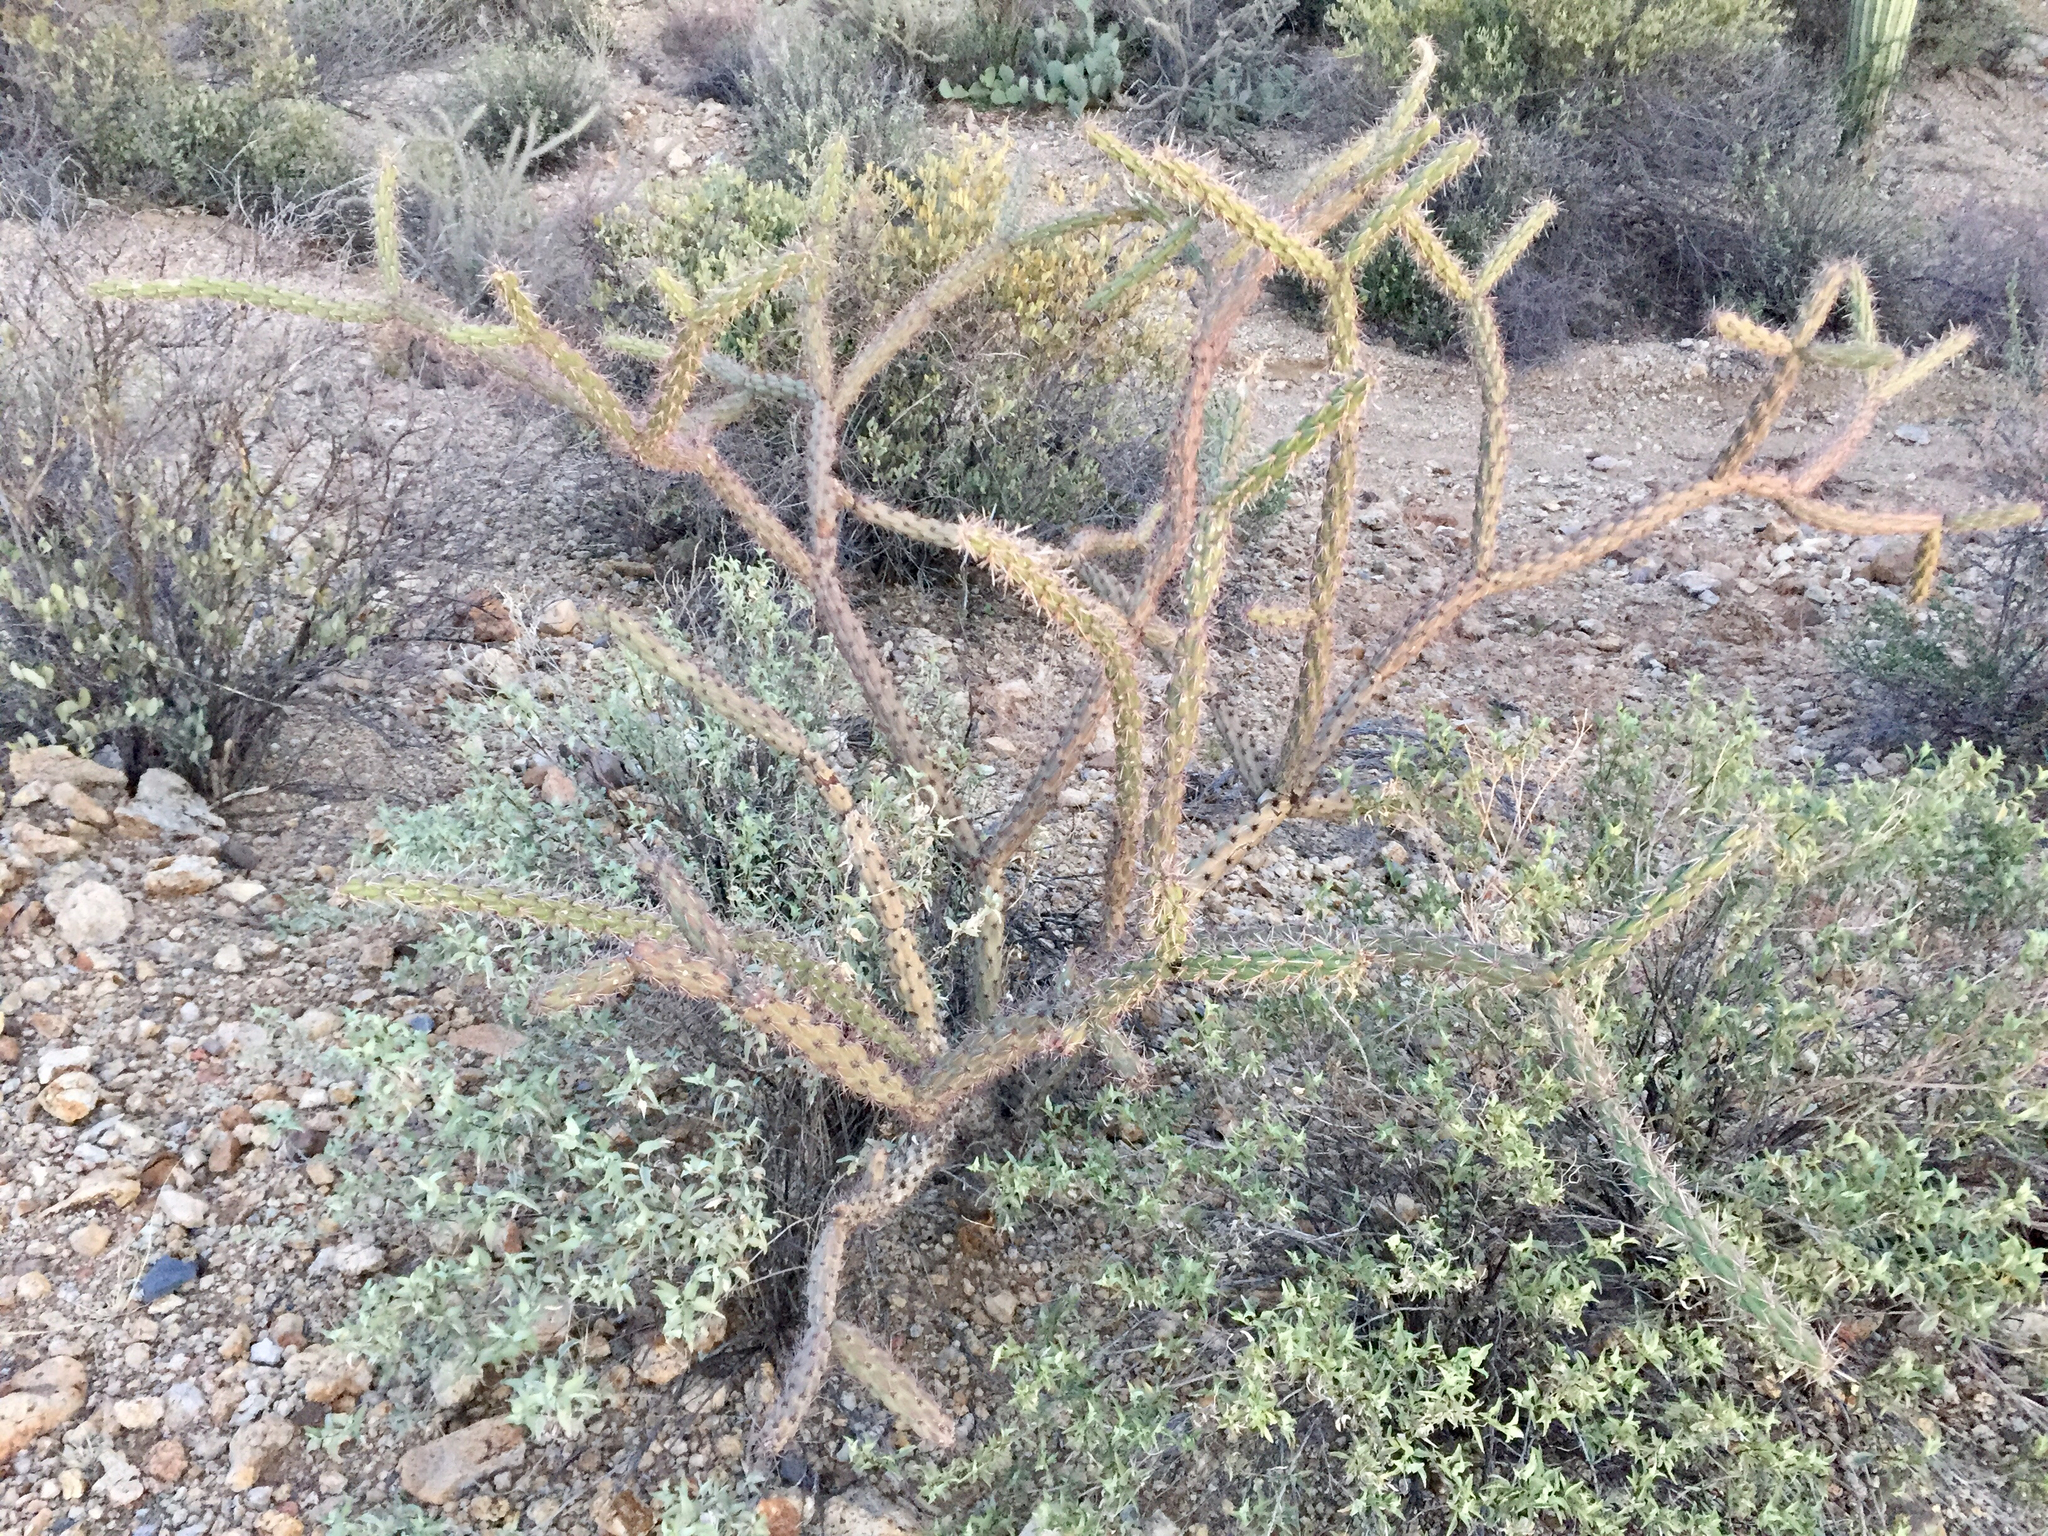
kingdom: Plantae
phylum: Tracheophyta
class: Magnoliopsida
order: Caryophyllales
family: Cactaceae
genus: Cylindropuntia
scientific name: Cylindropuntia acanthocarpa
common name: Buckhorn cholla
